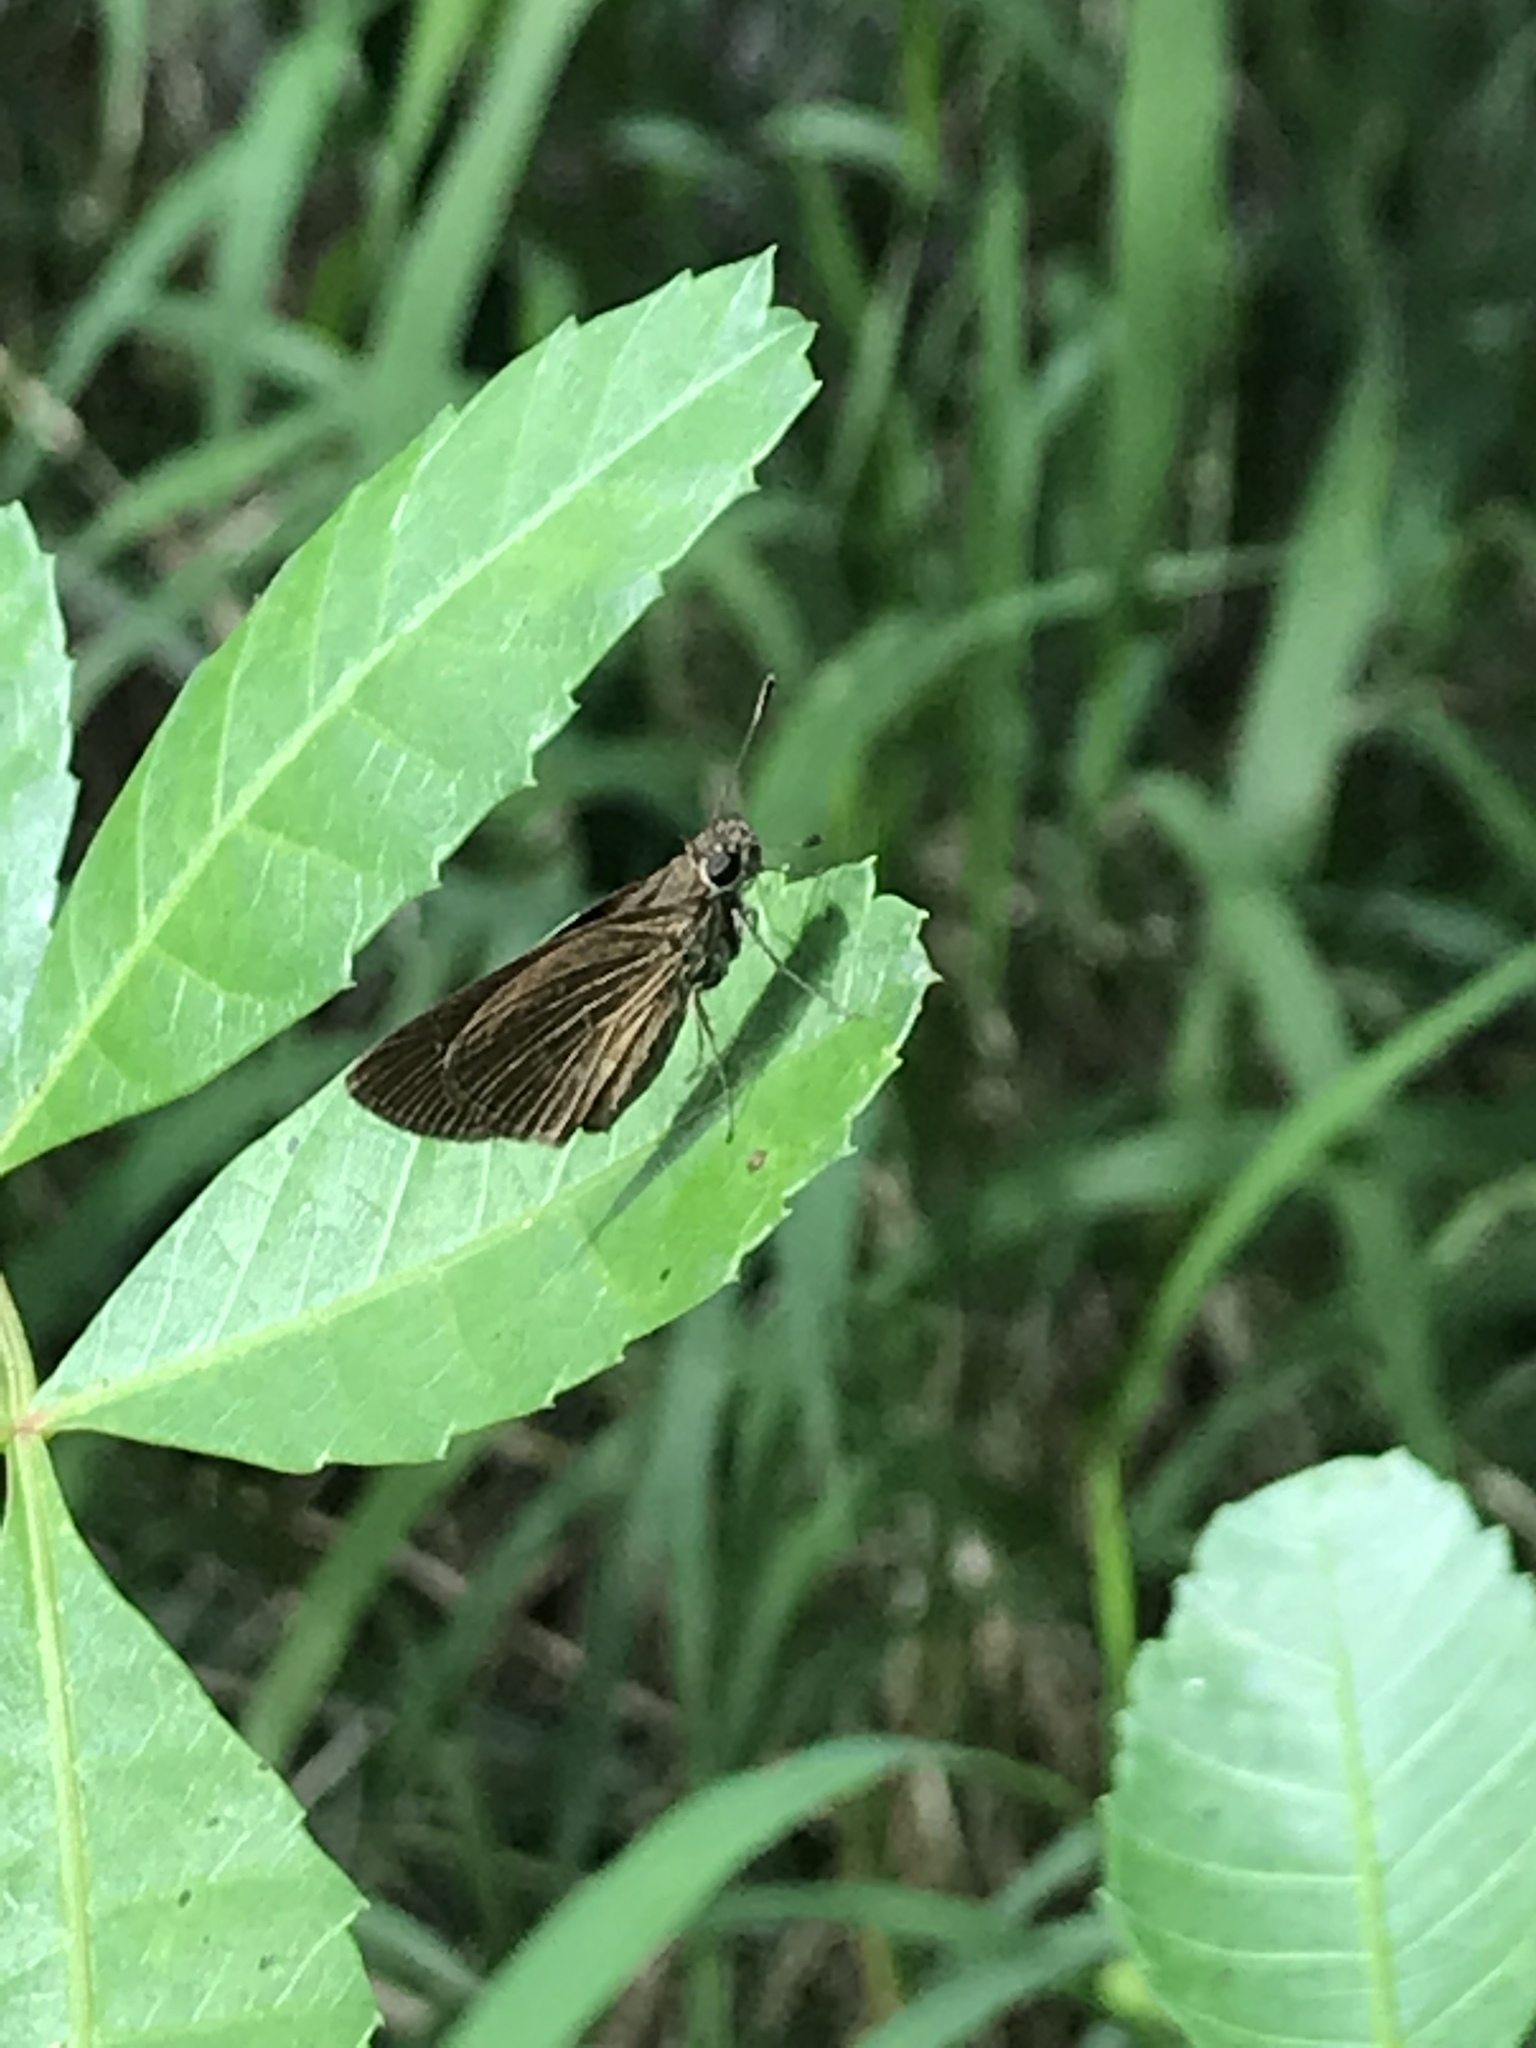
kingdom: Animalia
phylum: Arthropoda
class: Insecta
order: Lepidoptera
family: Hesperiidae
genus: Cymaenes
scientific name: Cymaenes tripunctus
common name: Dingy dotted skipper
